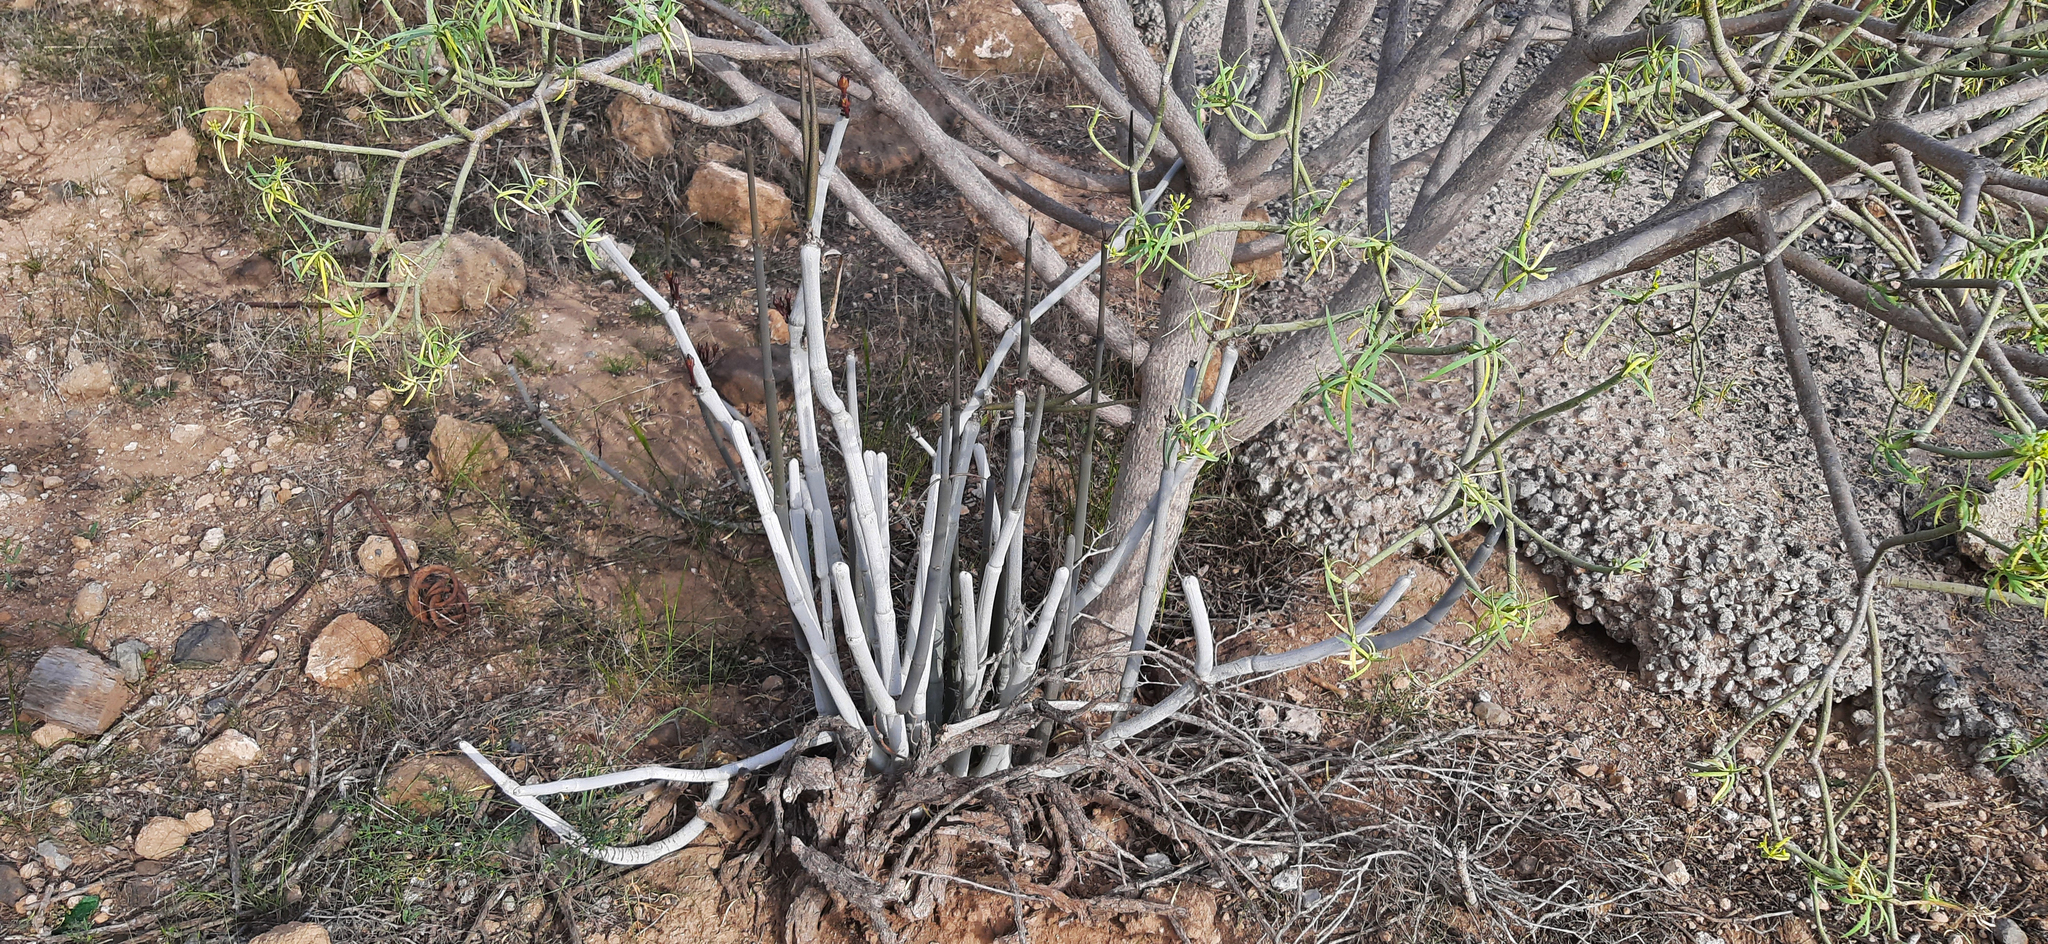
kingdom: Plantae
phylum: Tracheophyta
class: Magnoliopsida
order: Gentianales
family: Apocynaceae
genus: Ceropegia
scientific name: Ceropegia fusca
